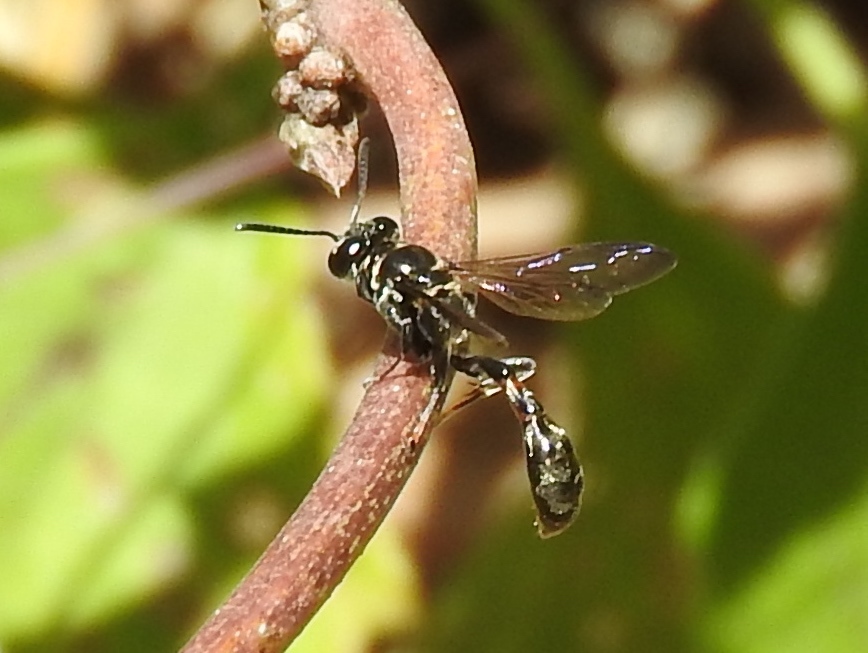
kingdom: Animalia
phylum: Arthropoda
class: Insecta
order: Hymenoptera
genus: Trypargilum
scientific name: Trypargilum
